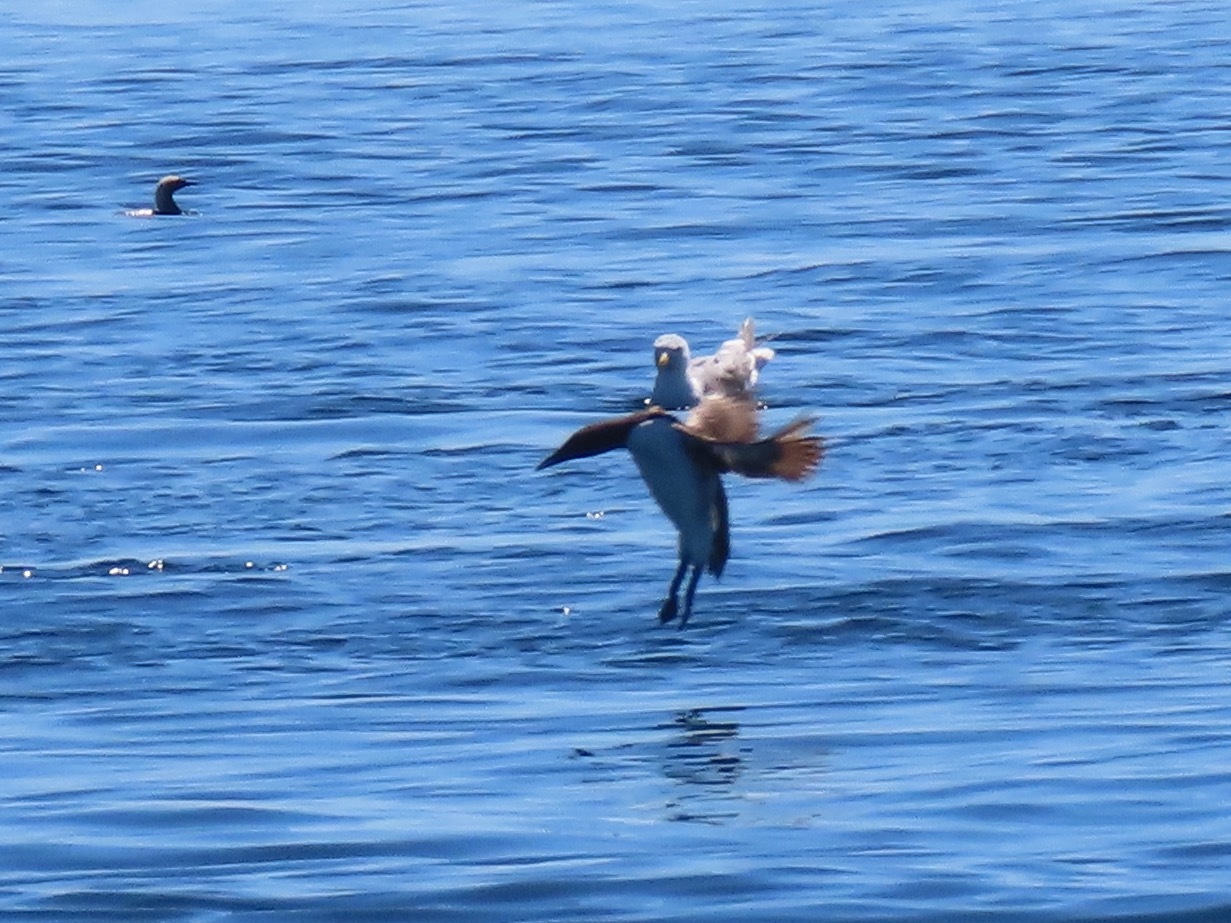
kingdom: Animalia
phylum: Chordata
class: Aves
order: Charadriiformes
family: Alcidae
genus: Uria
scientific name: Uria aalge
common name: Common murre
